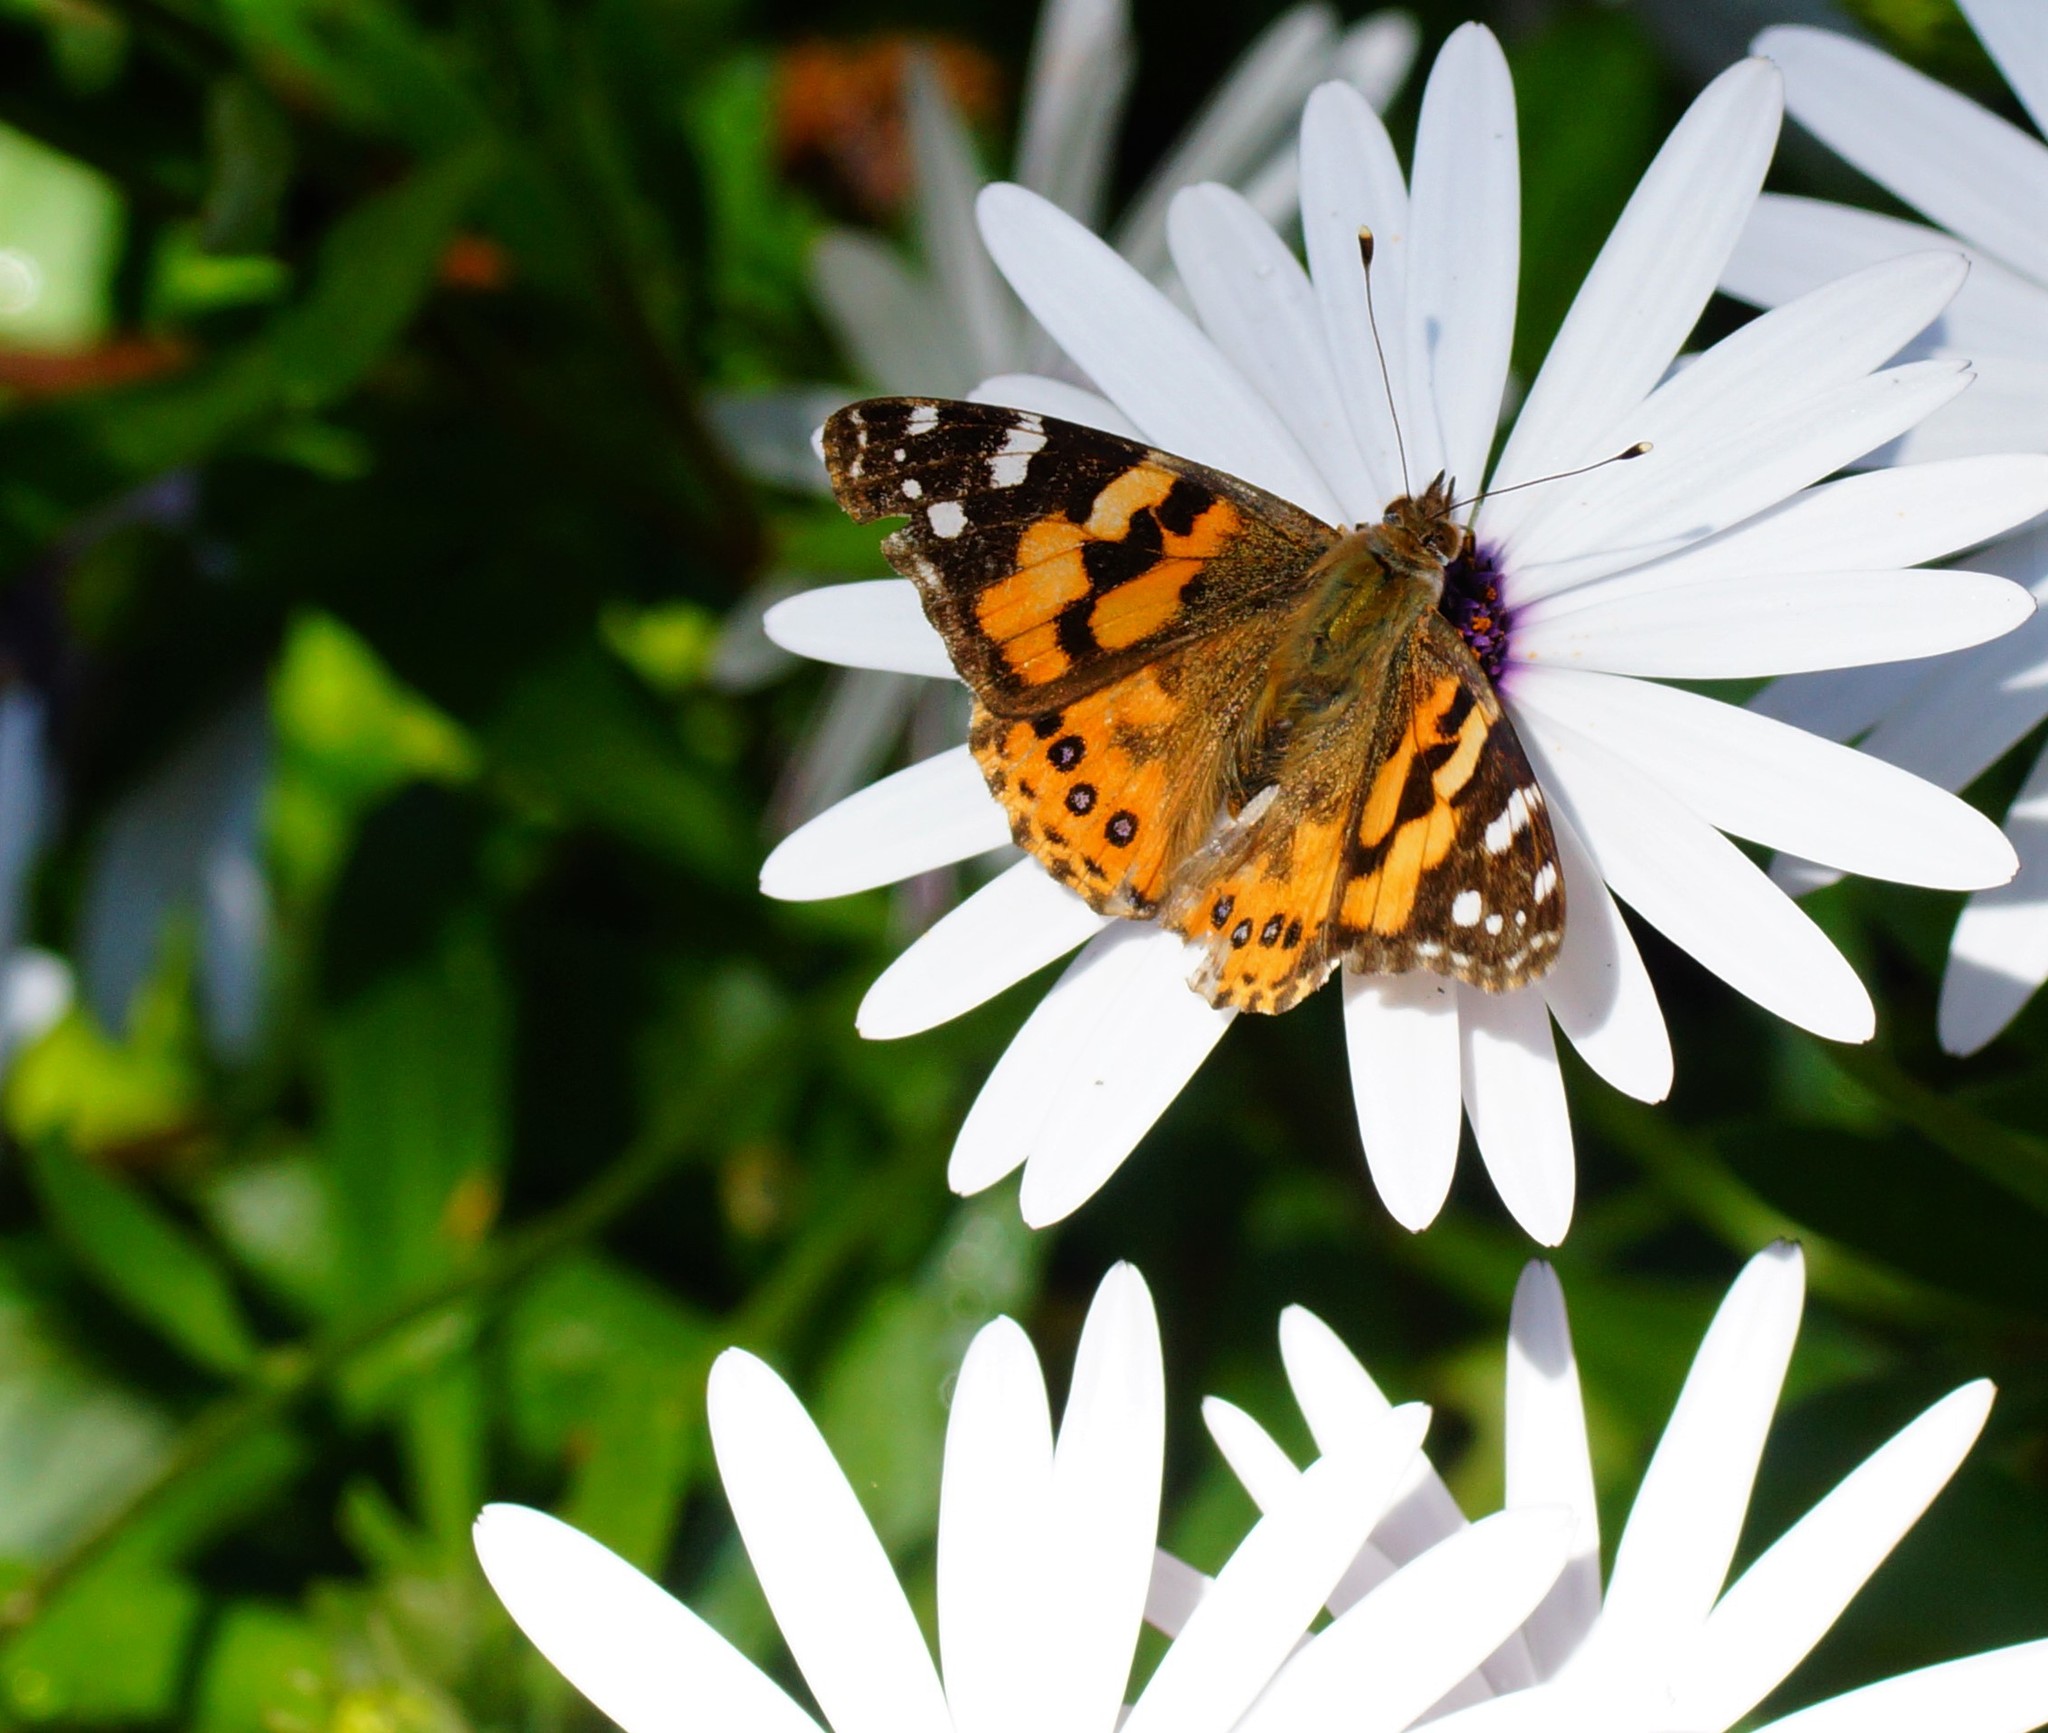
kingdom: Animalia
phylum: Arthropoda
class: Insecta
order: Lepidoptera
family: Nymphalidae
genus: Vanessa
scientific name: Vanessa kershawi
